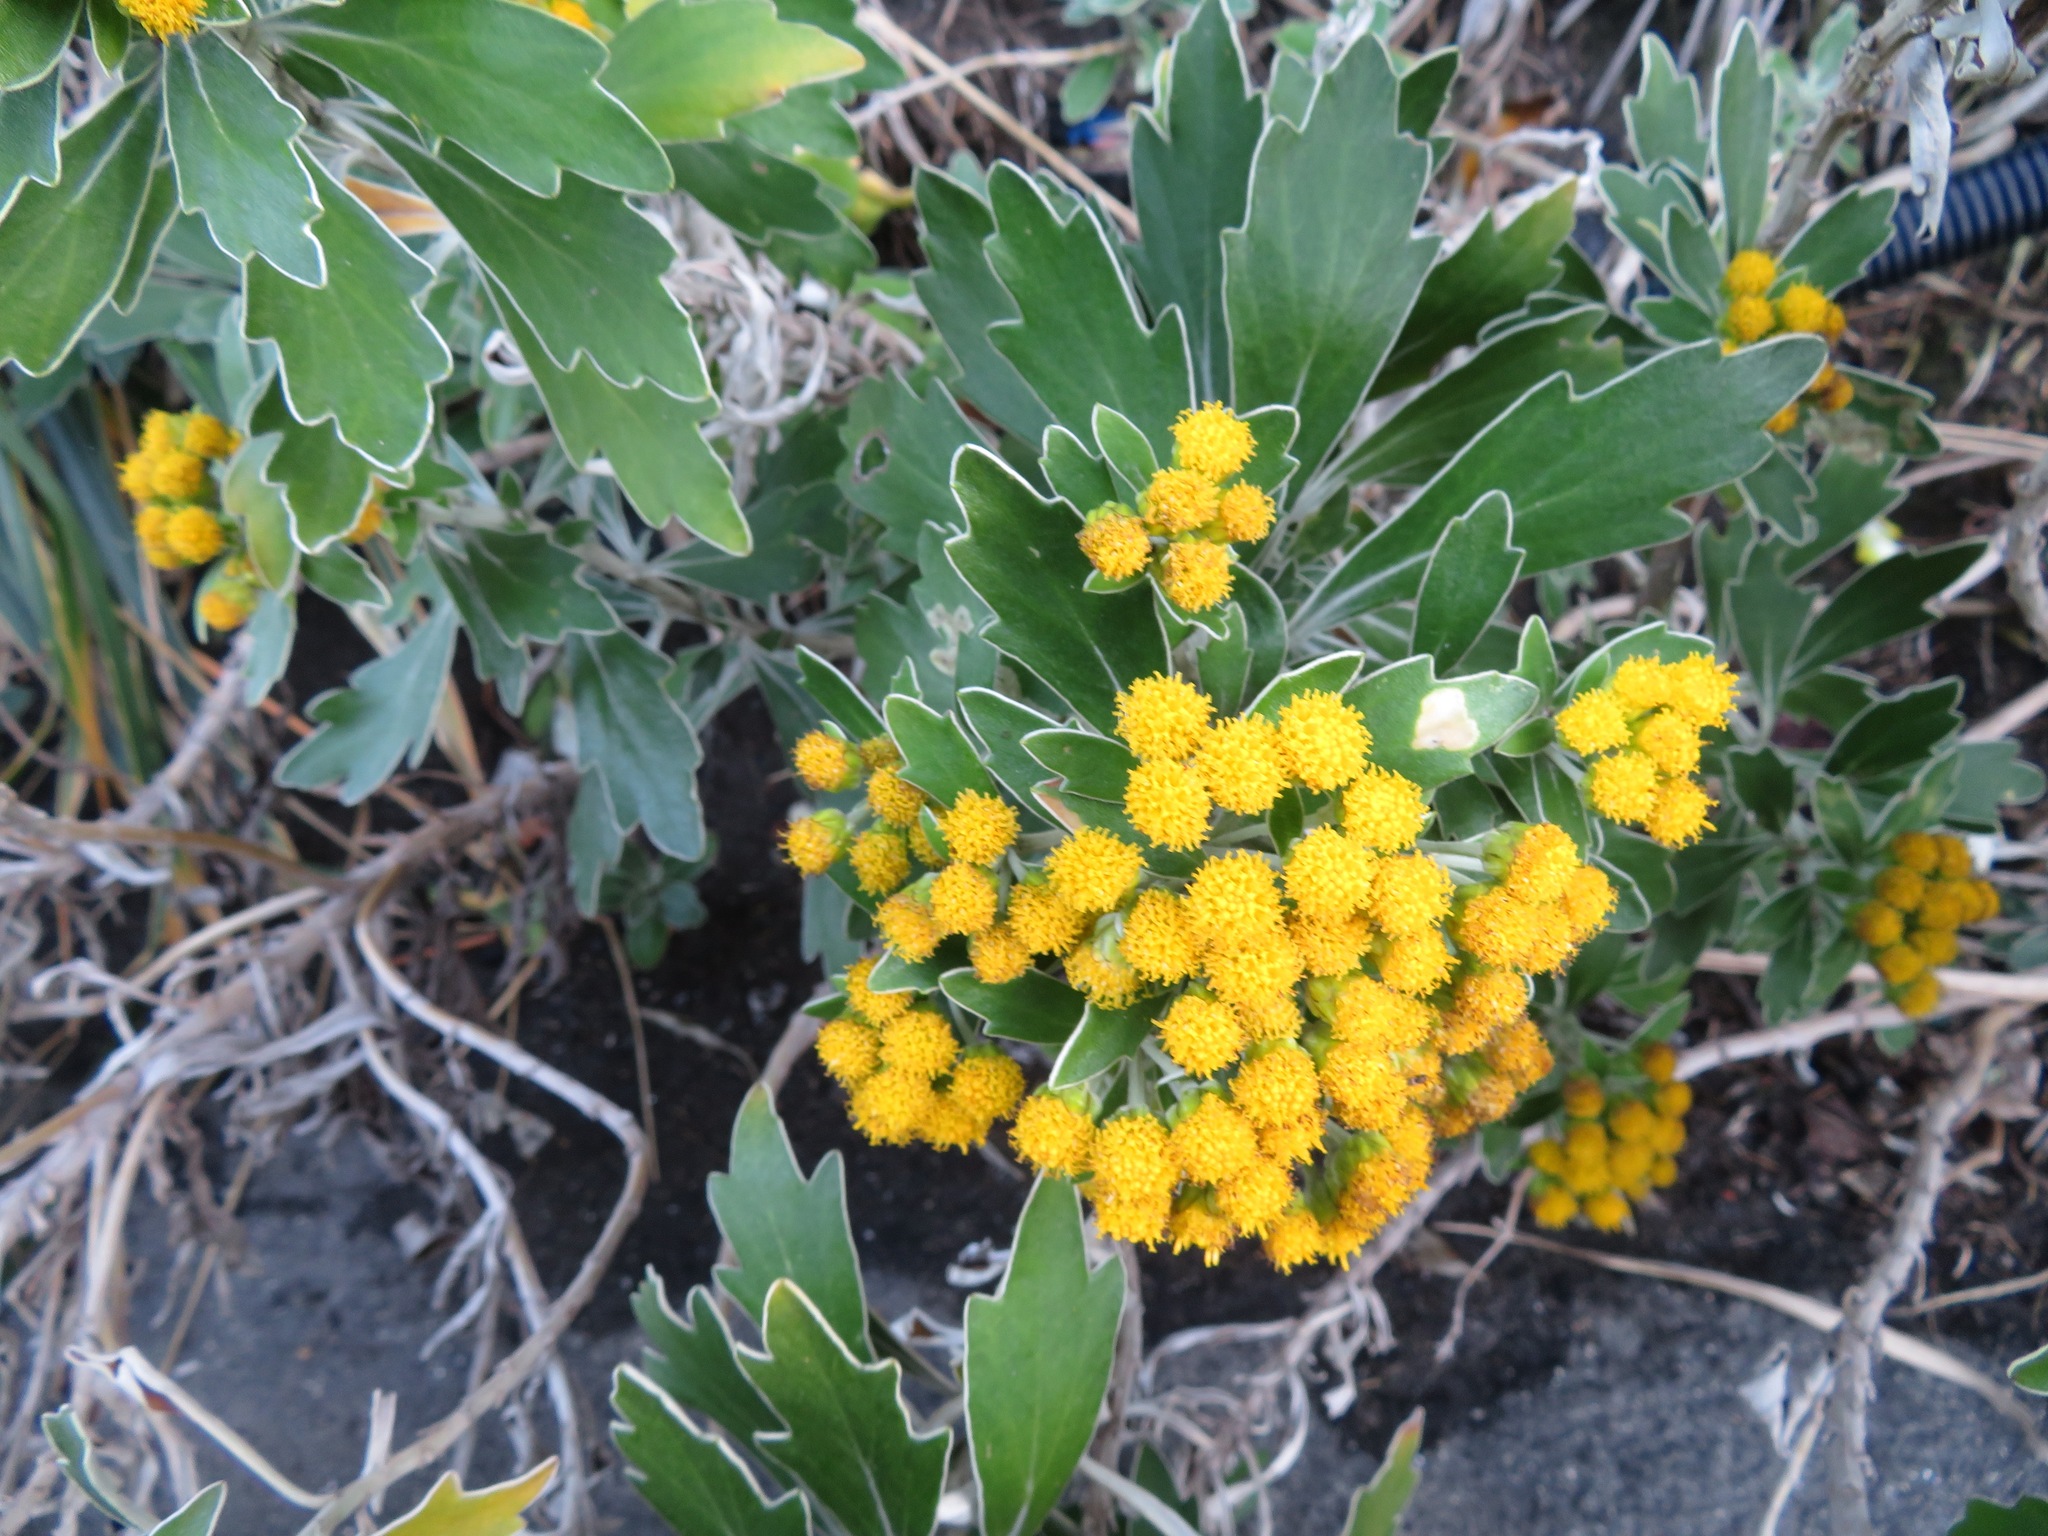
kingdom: Plantae
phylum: Tracheophyta
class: Magnoliopsida
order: Asterales
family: Asteraceae
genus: Ajania
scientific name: Ajania pacifica
